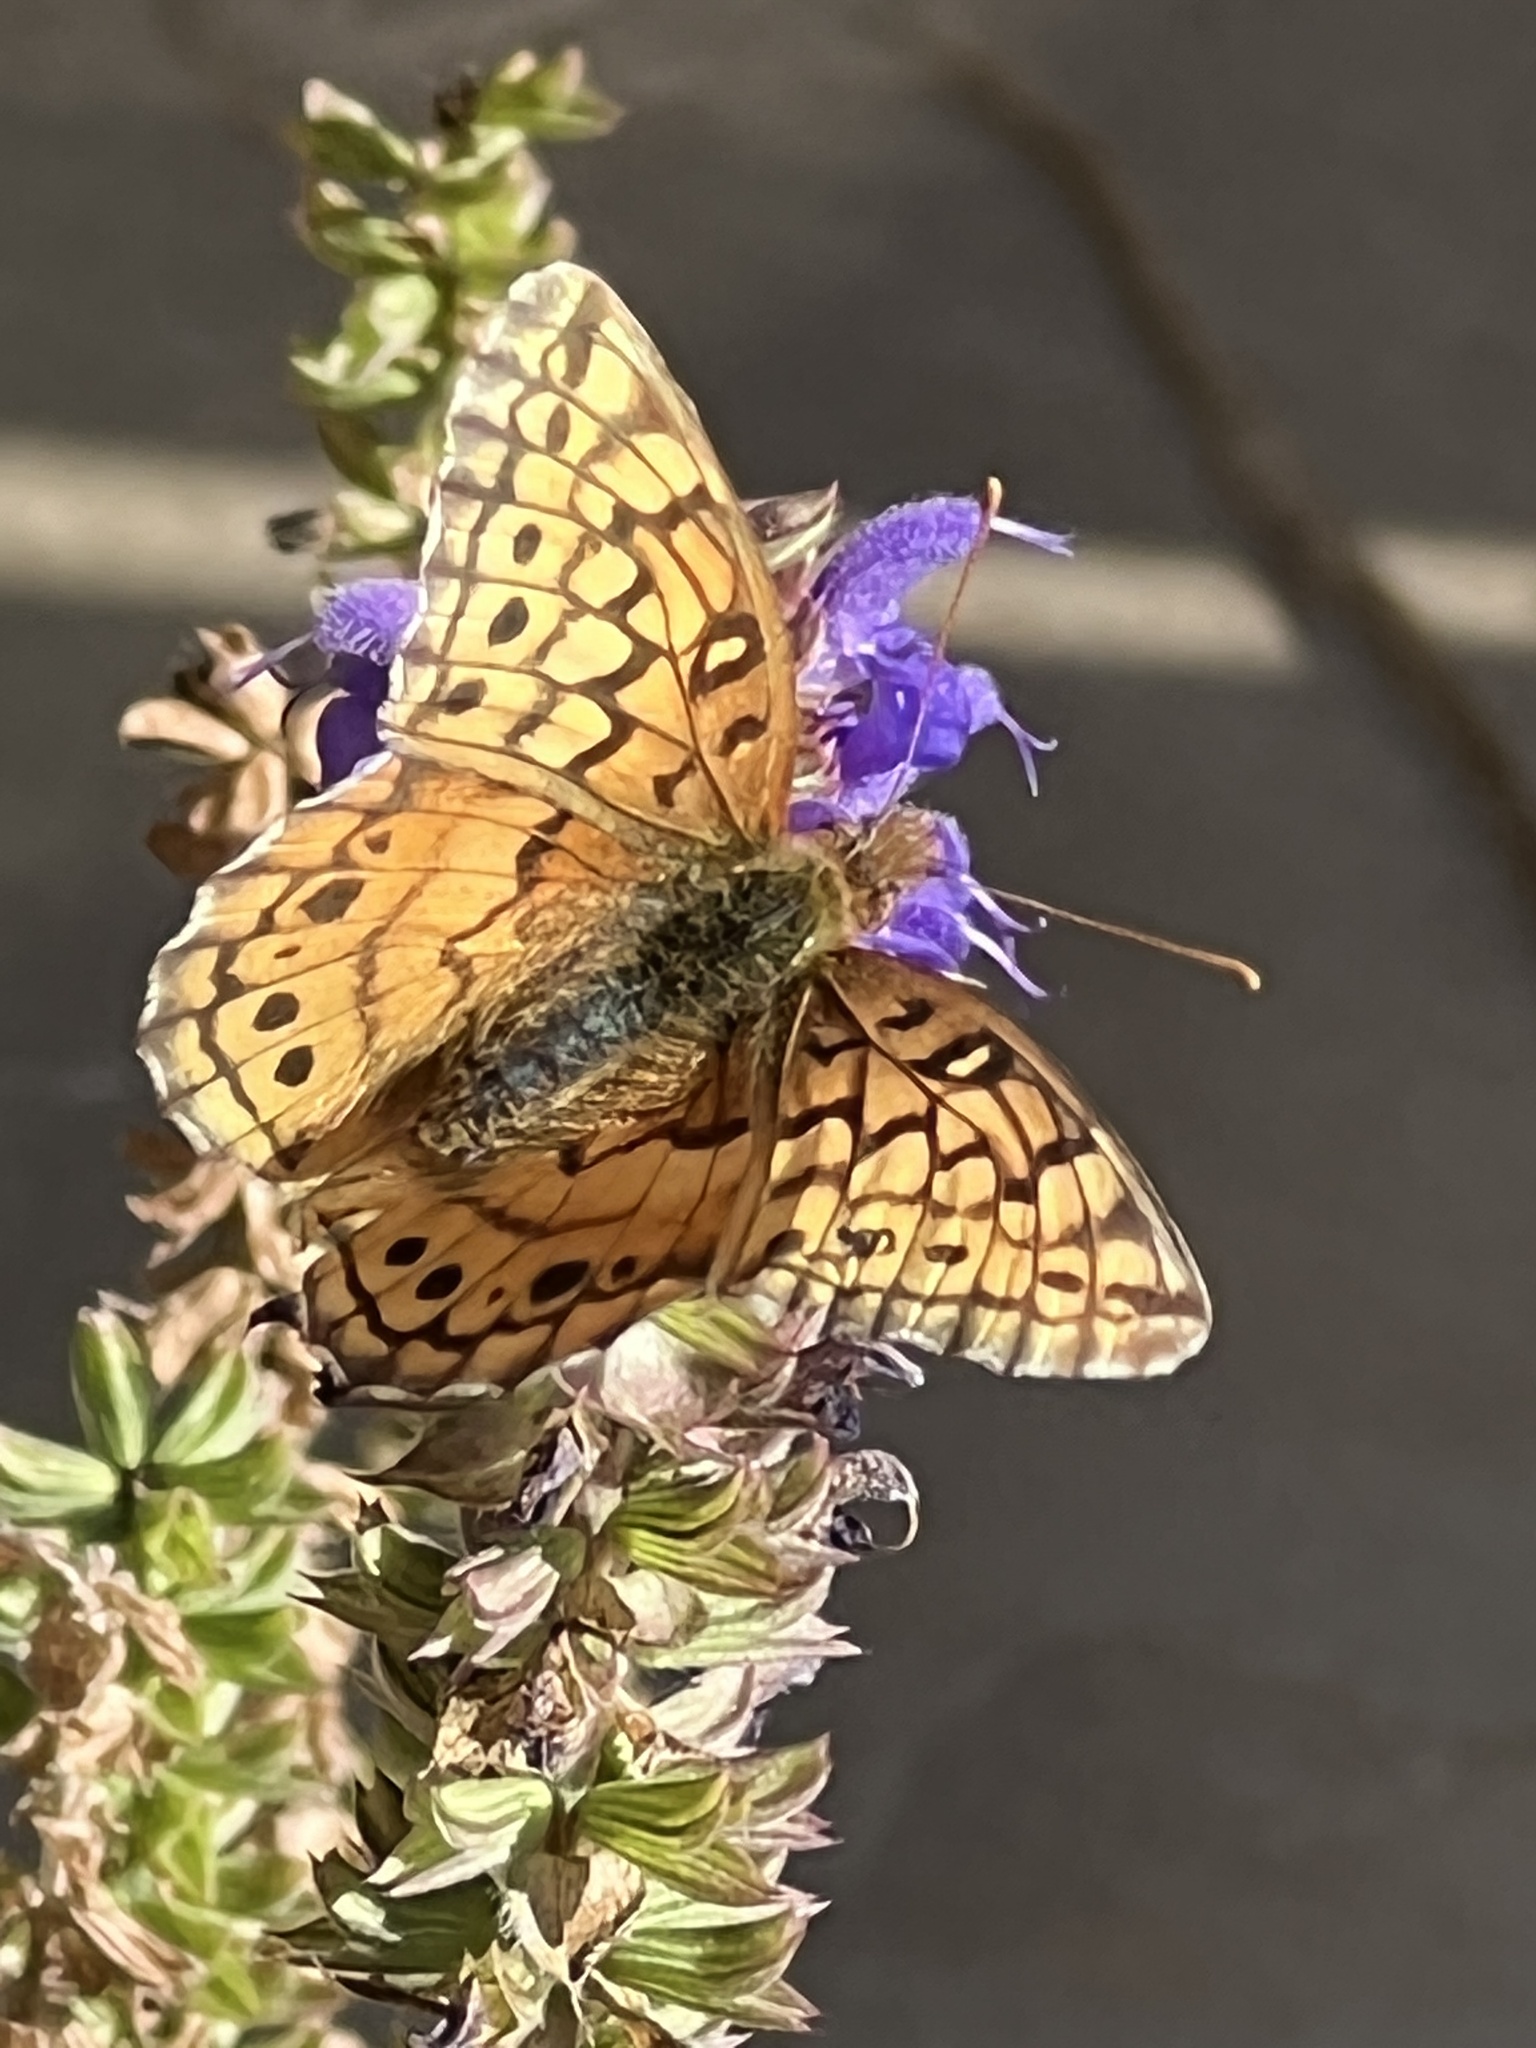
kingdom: Animalia
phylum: Arthropoda
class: Insecta
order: Lepidoptera
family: Nymphalidae
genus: Euptoieta
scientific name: Euptoieta claudia
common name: Variegated fritillary
